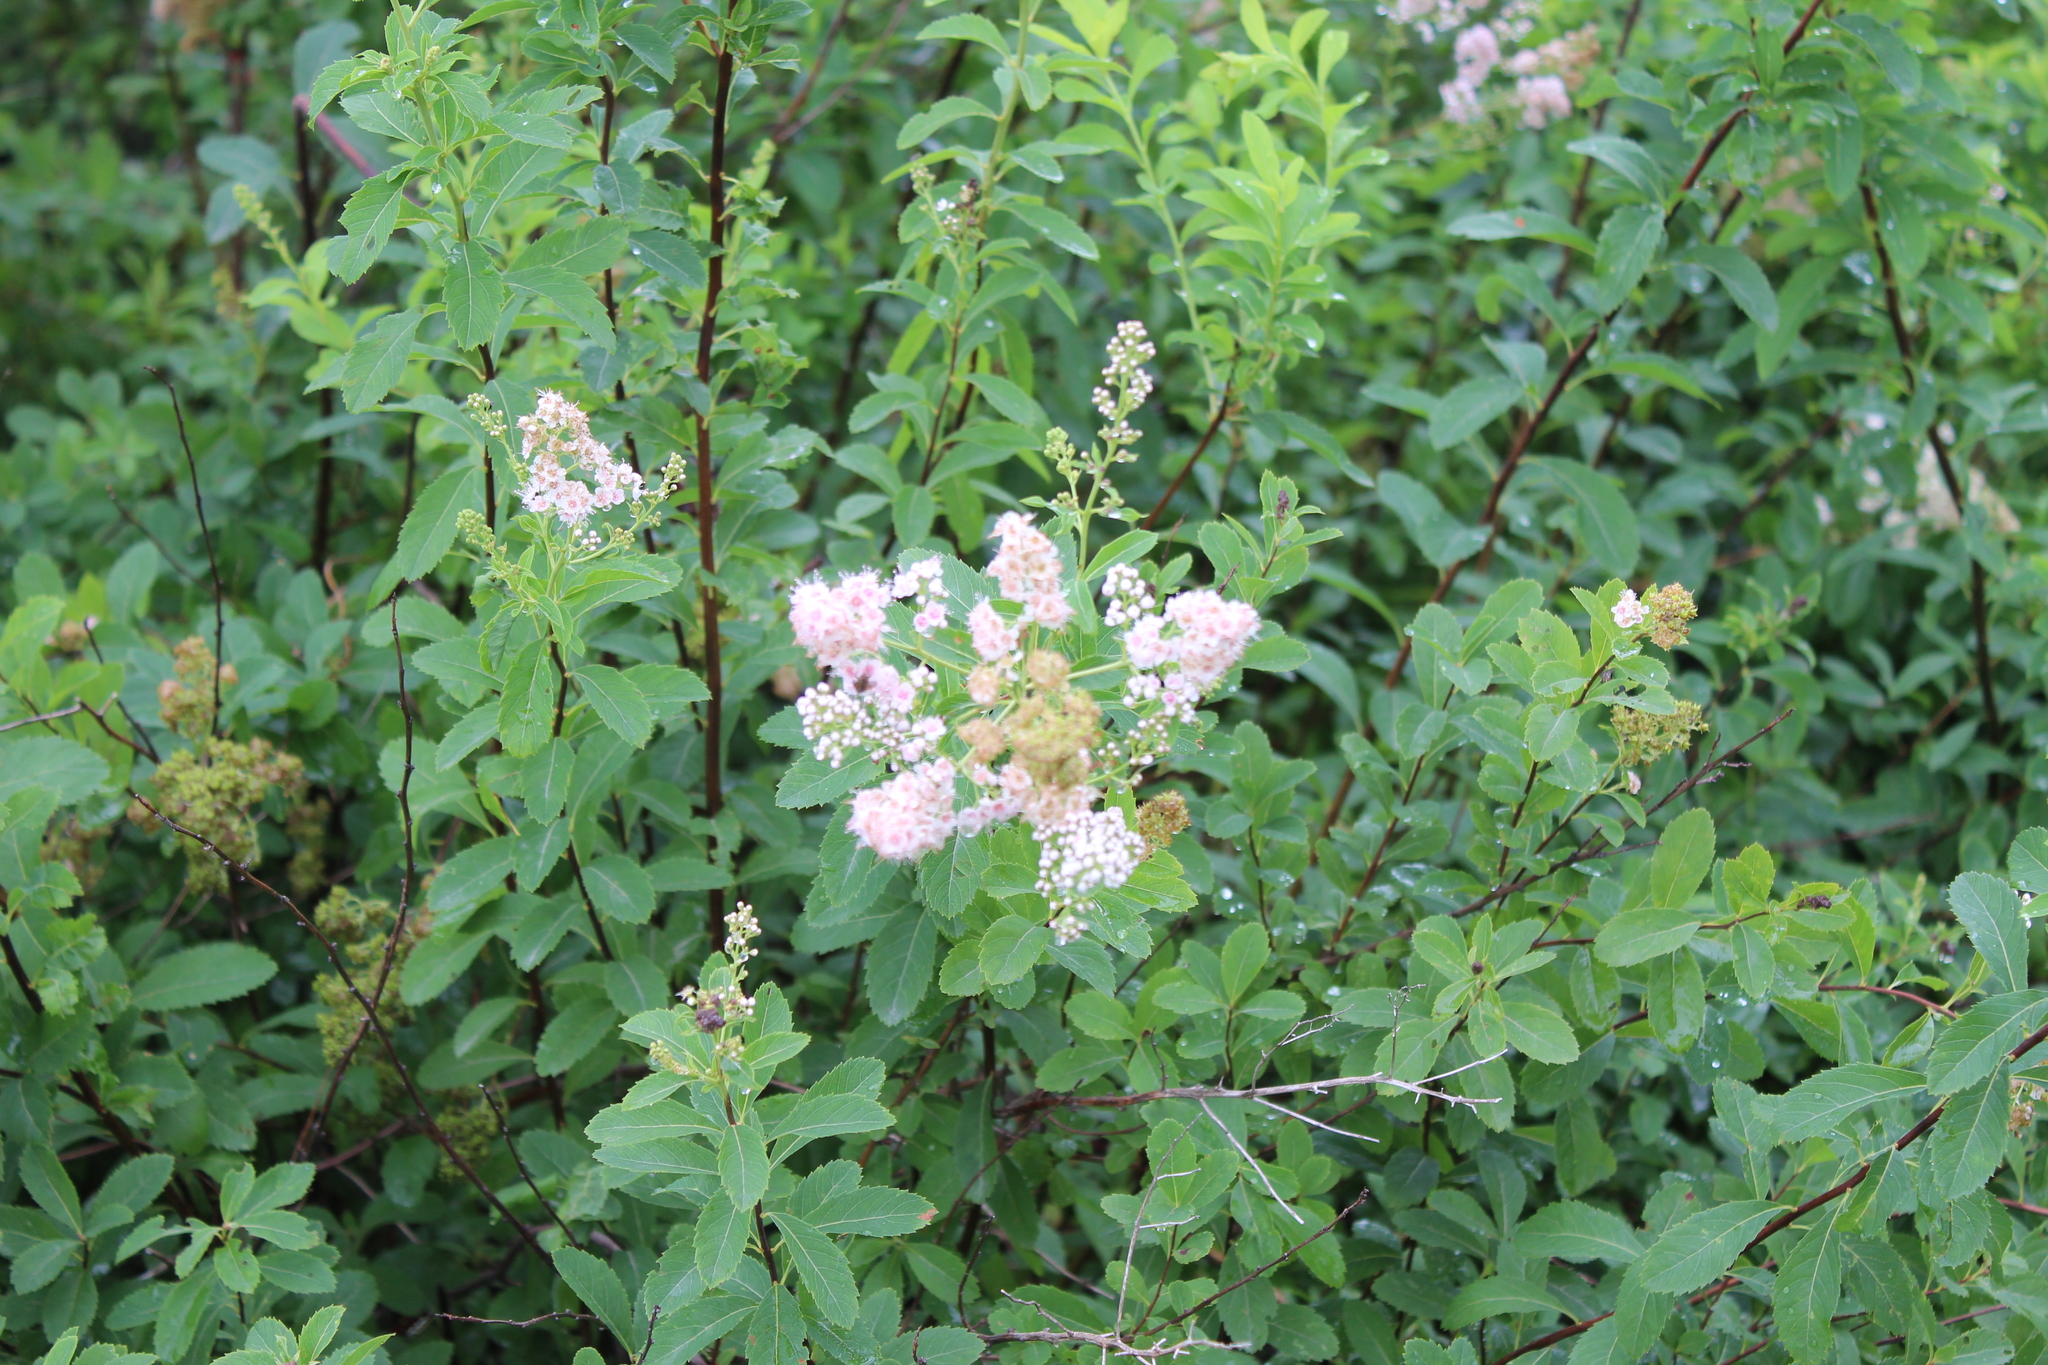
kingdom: Plantae
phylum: Tracheophyta
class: Magnoliopsida
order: Rosales
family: Rosaceae
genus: Spiraea
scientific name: Spiraea alba
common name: Pale bridewort
